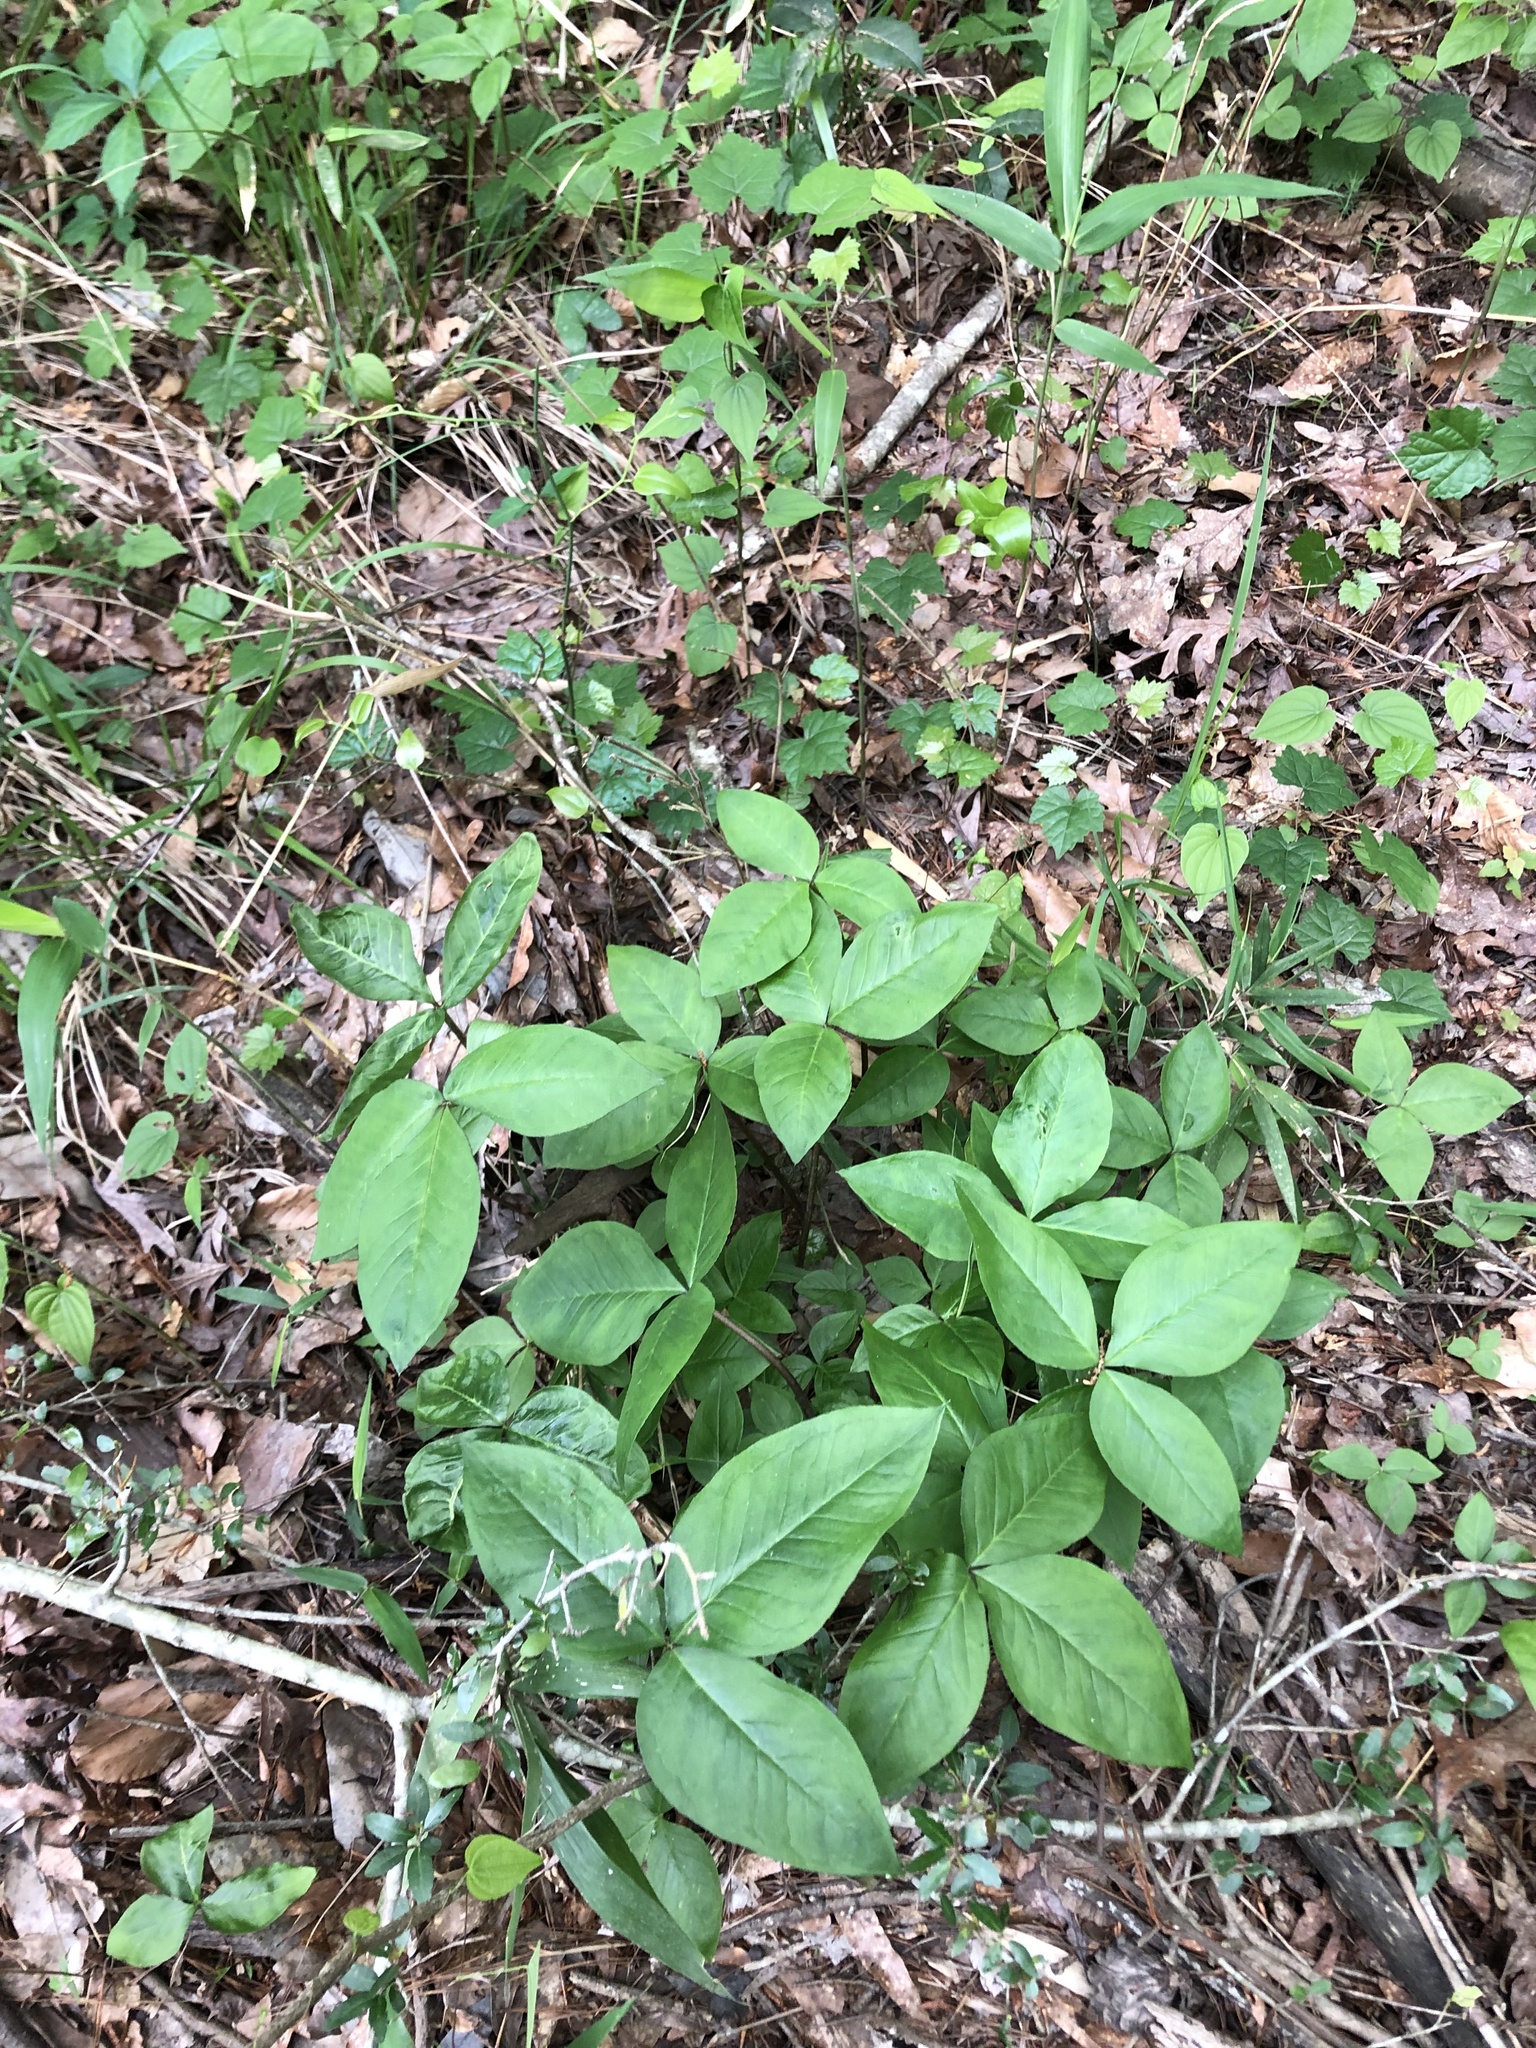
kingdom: Plantae
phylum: Tracheophyta
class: Liliopsida
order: Alismatales
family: Araceae
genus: Arisaema
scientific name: Arisaema acuminatum
